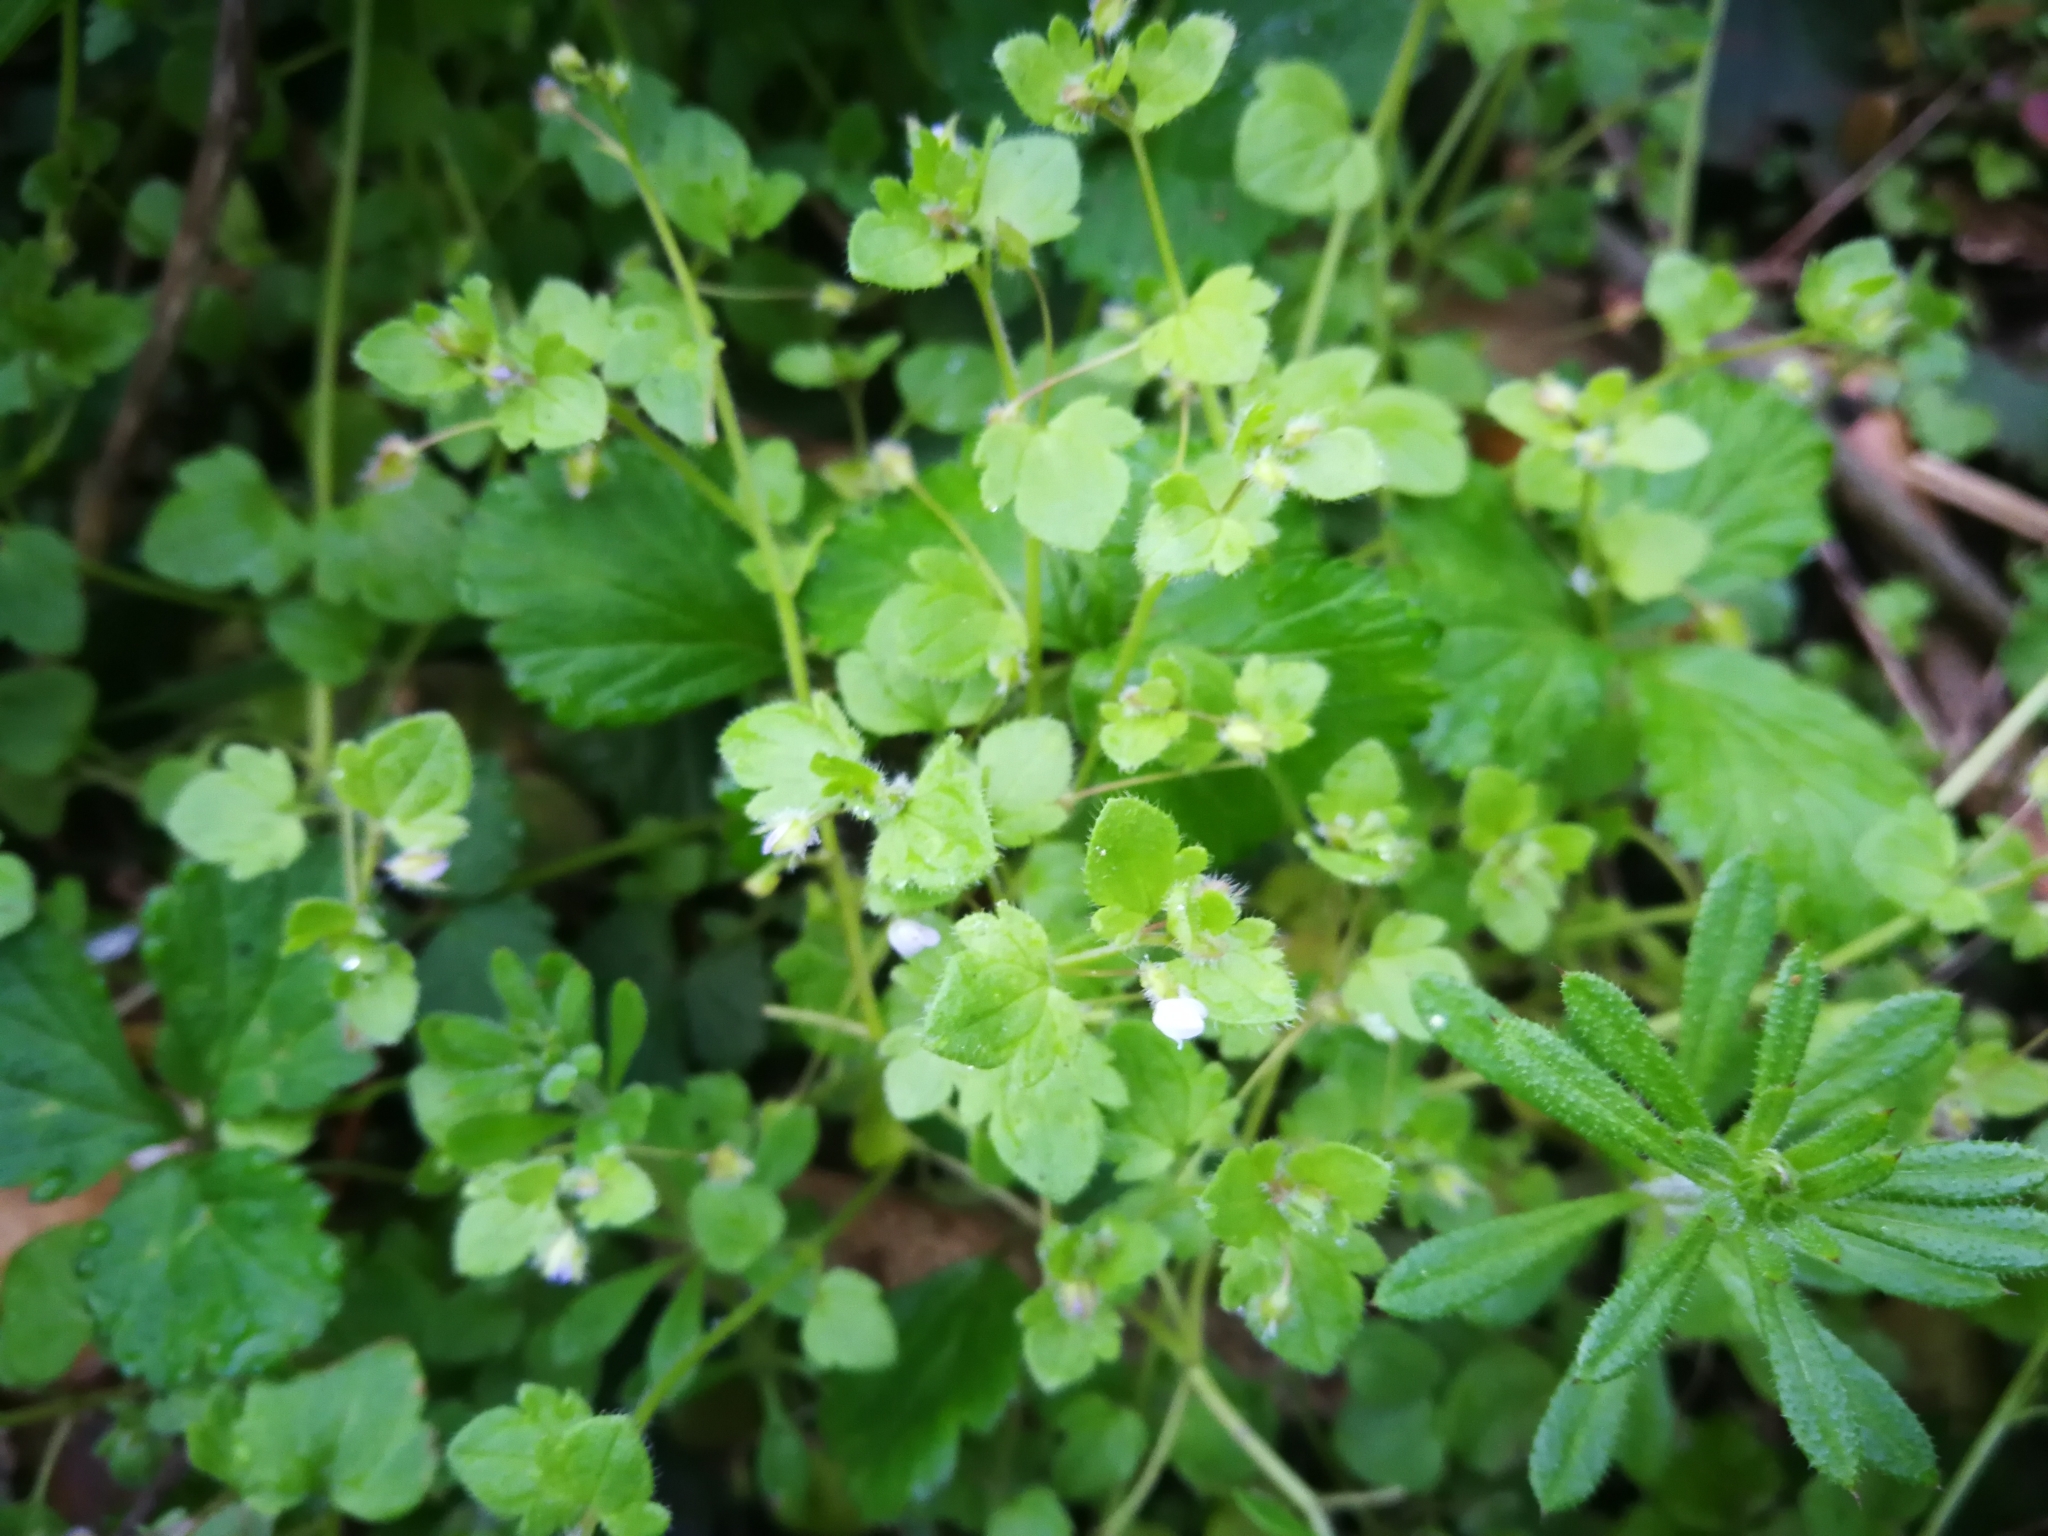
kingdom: Plantae
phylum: Tracheophyta
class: Magnoliopsida
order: Lamiales
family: Plantaginaceae
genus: Veronica
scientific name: Veronica hederifolia
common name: Ivy-leaved speedwell
